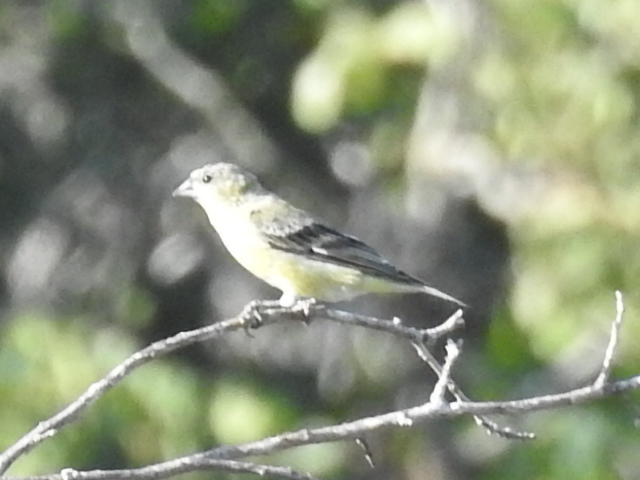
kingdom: Animalia
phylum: Chordata
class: Aves
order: Passeriformes
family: Fringillidae
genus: Spinus
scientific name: Spinus psaltria
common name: Lesser goldfinch
